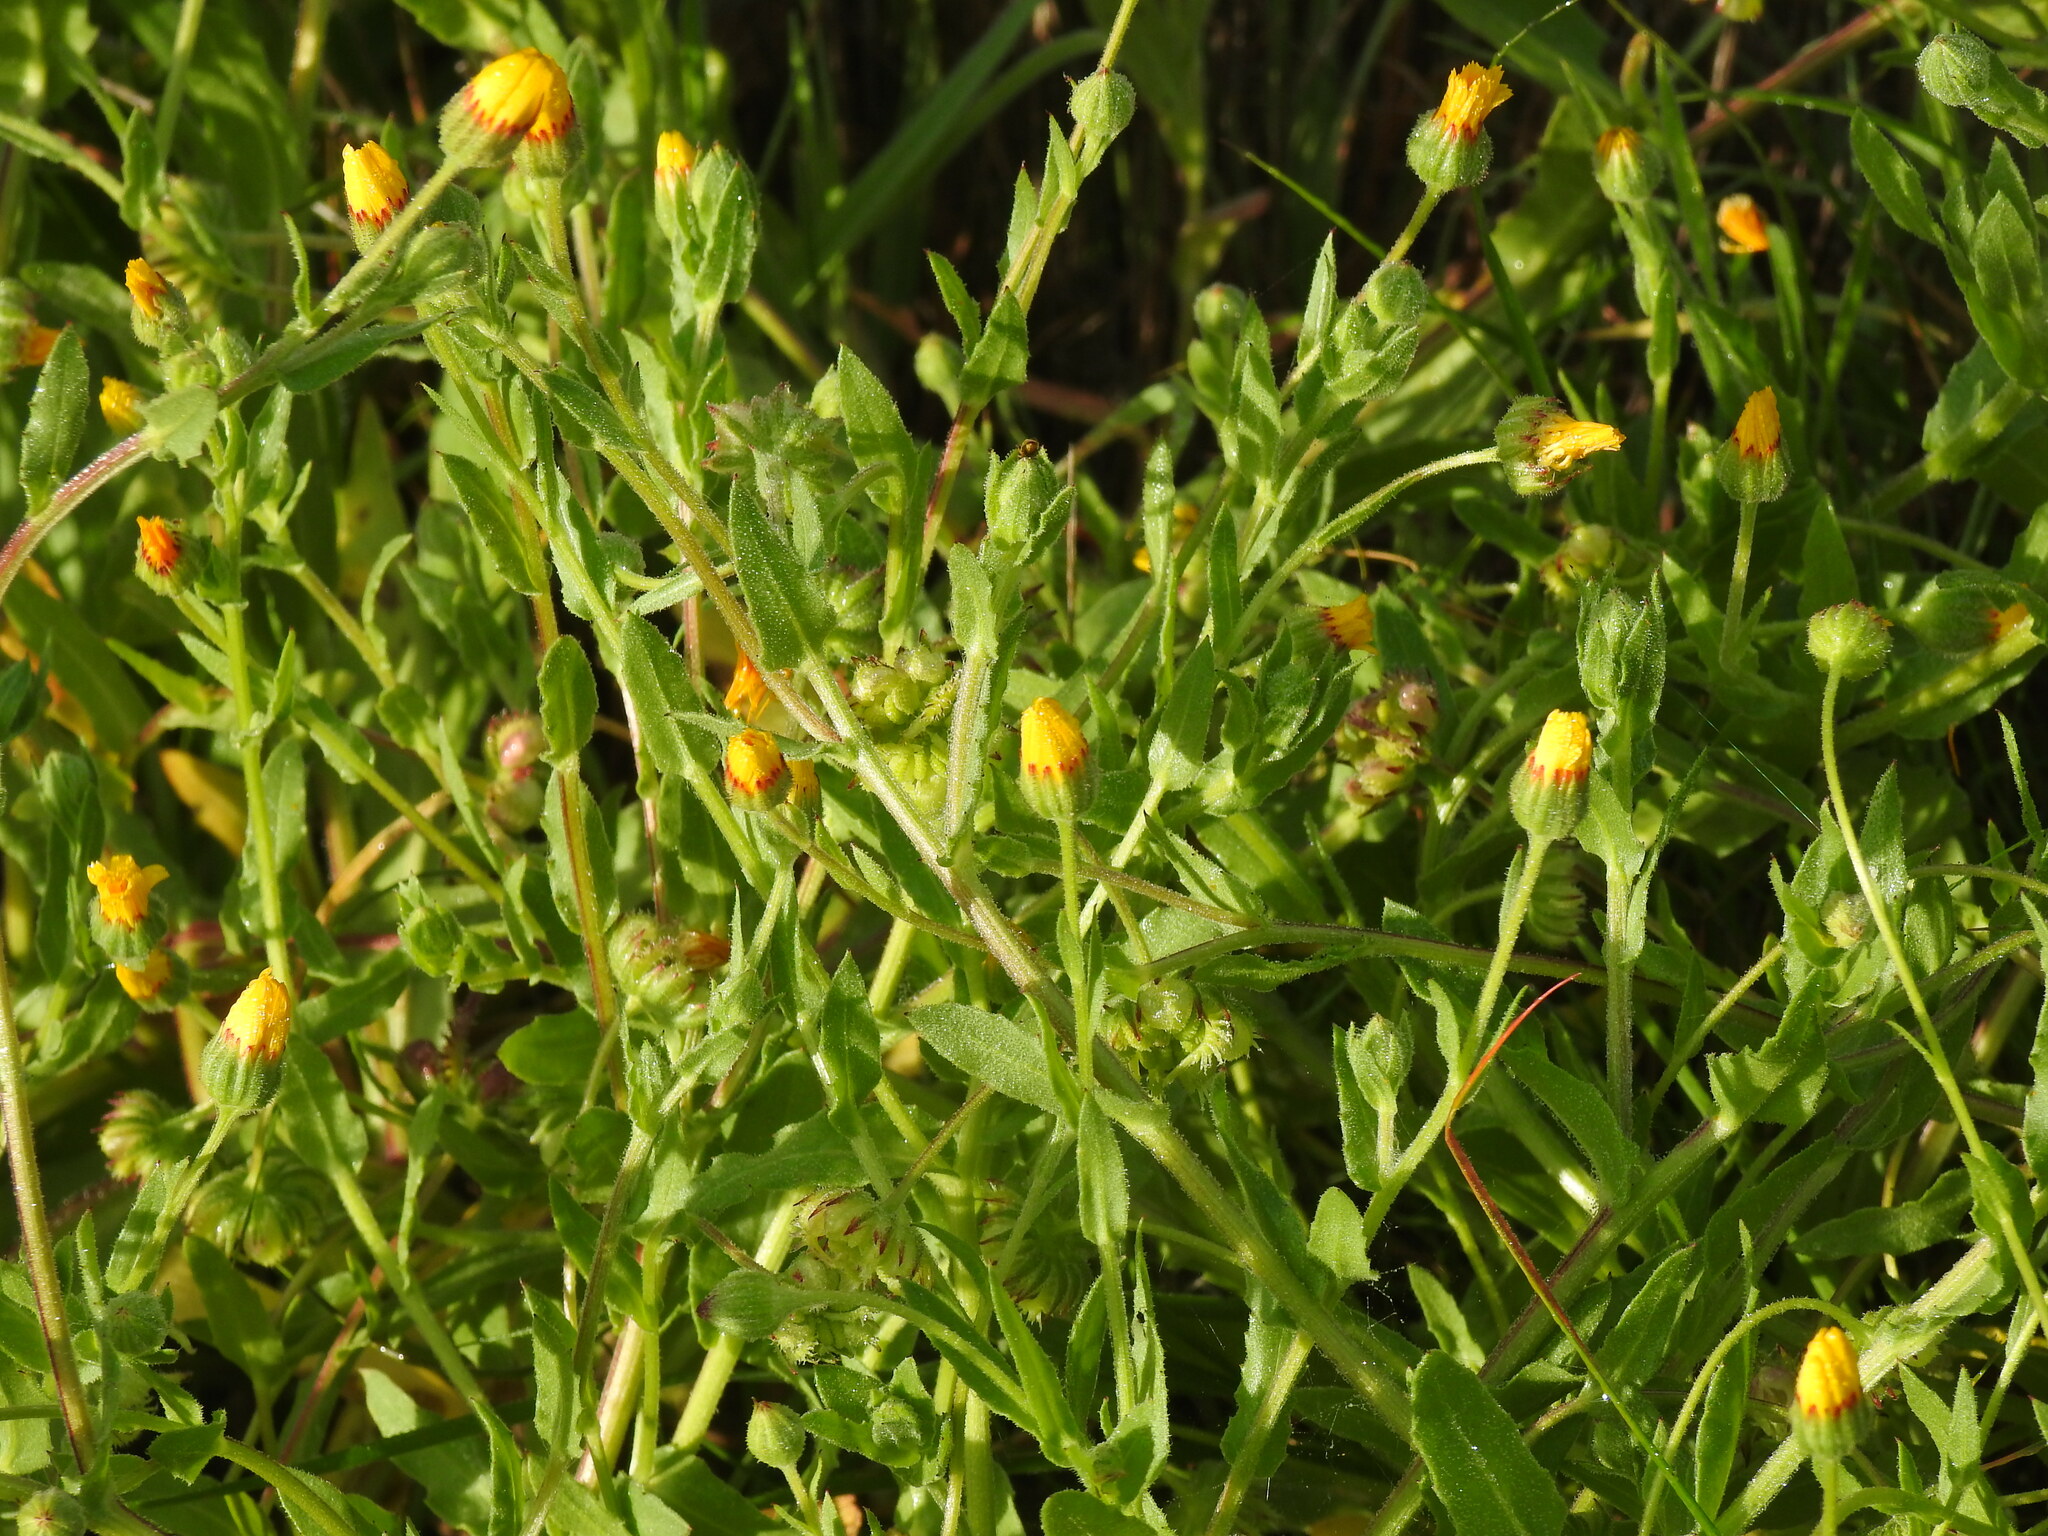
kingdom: Plantae
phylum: Tracheophyta
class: Magnoliopsida
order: Asterales
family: Asteraceae
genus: Calendula
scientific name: Calendula arvensis
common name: Field marigold
